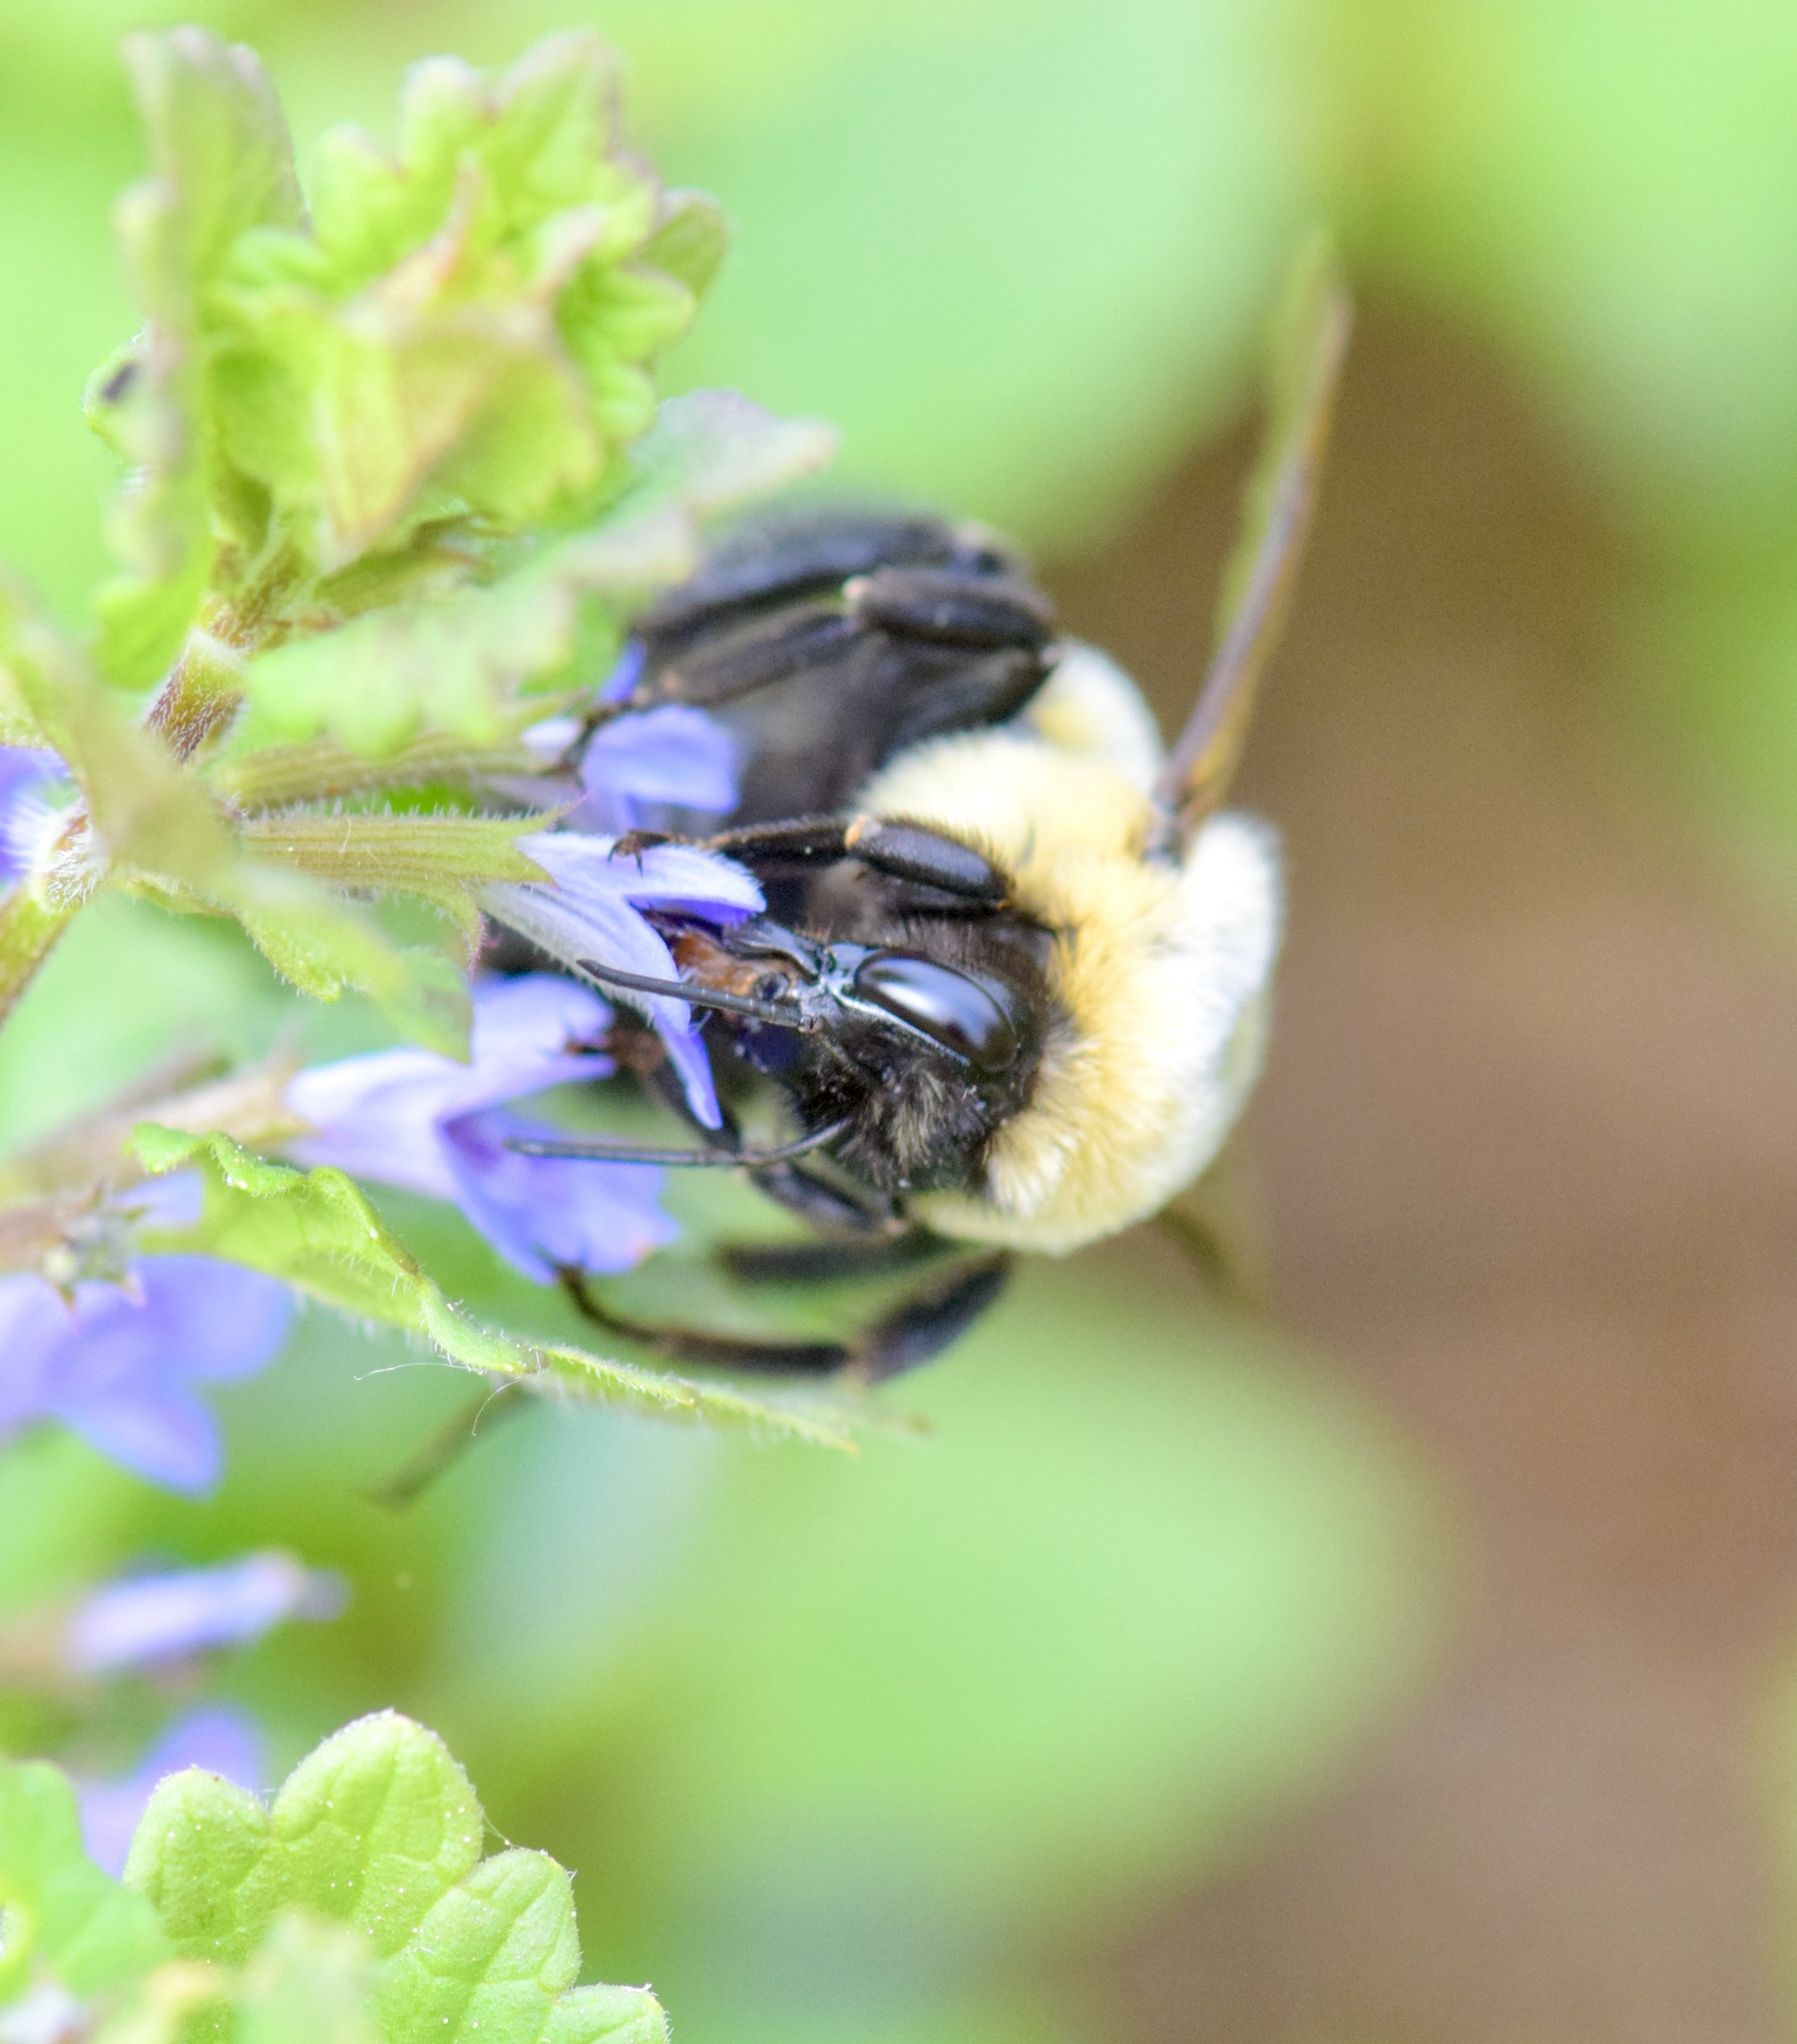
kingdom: Animalia
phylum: Arthropoda
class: Insecta
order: Hymenoptera
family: Apidae
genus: Bombus
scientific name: Bombus impatiens
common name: Common eastern bumble bee
